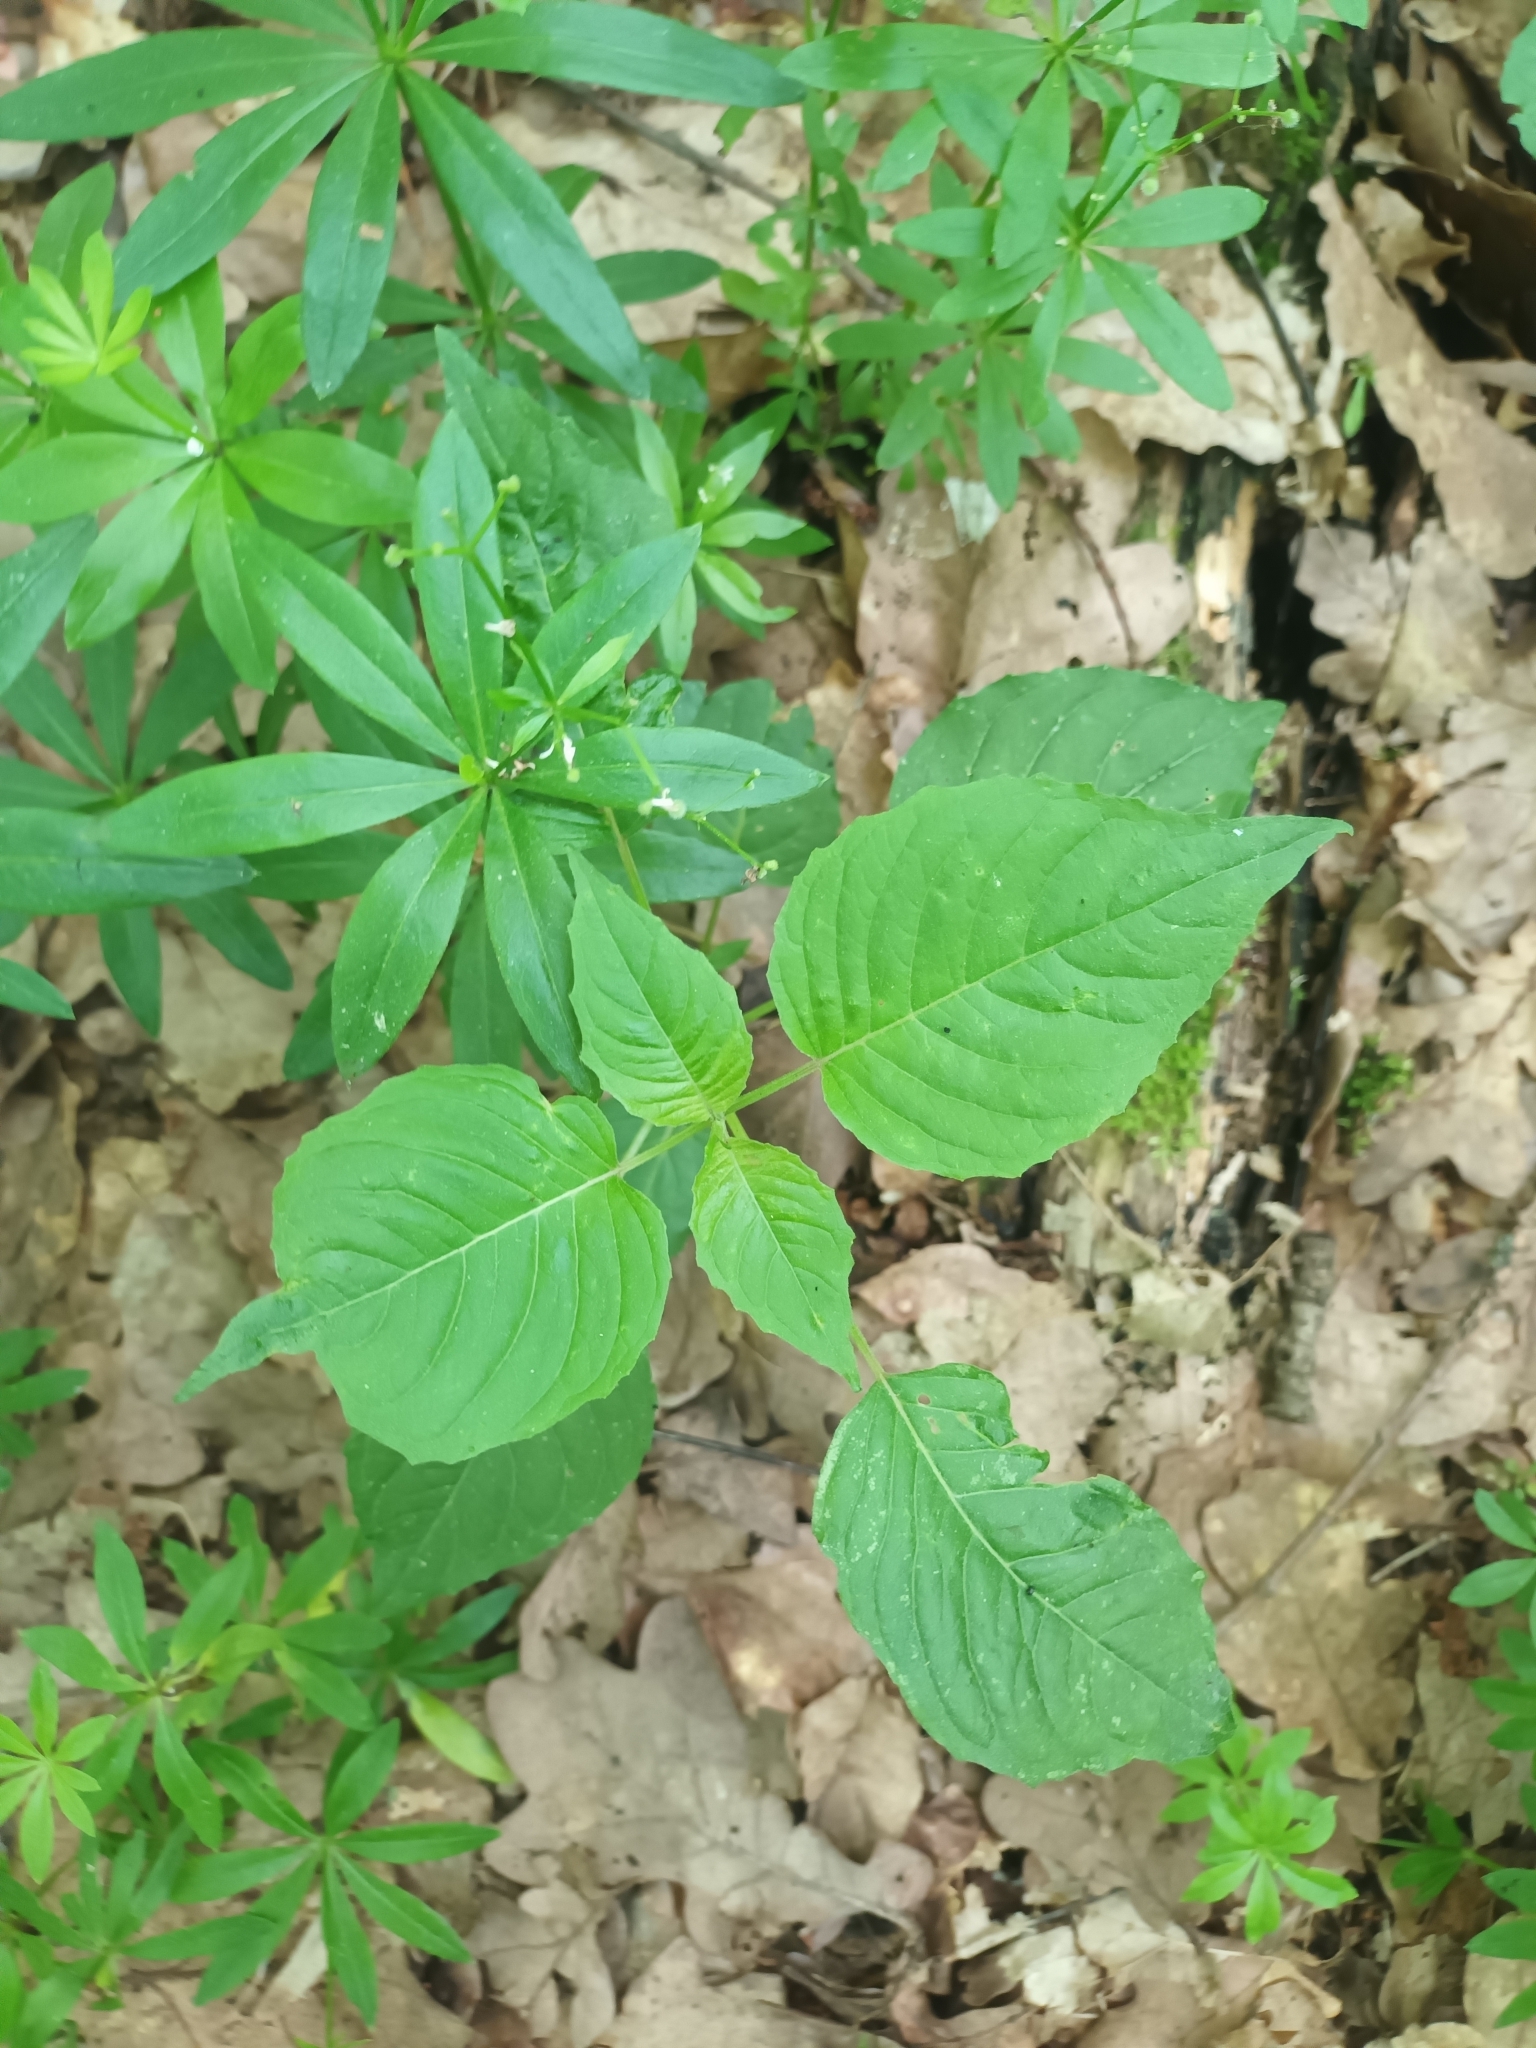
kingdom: Plantae
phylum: Tracheophyta
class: Magnoliopsida
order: Myrtales
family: Onagraceae
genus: Circaea
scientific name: Circaea lutetiana
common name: Enchanter's-nightshade
